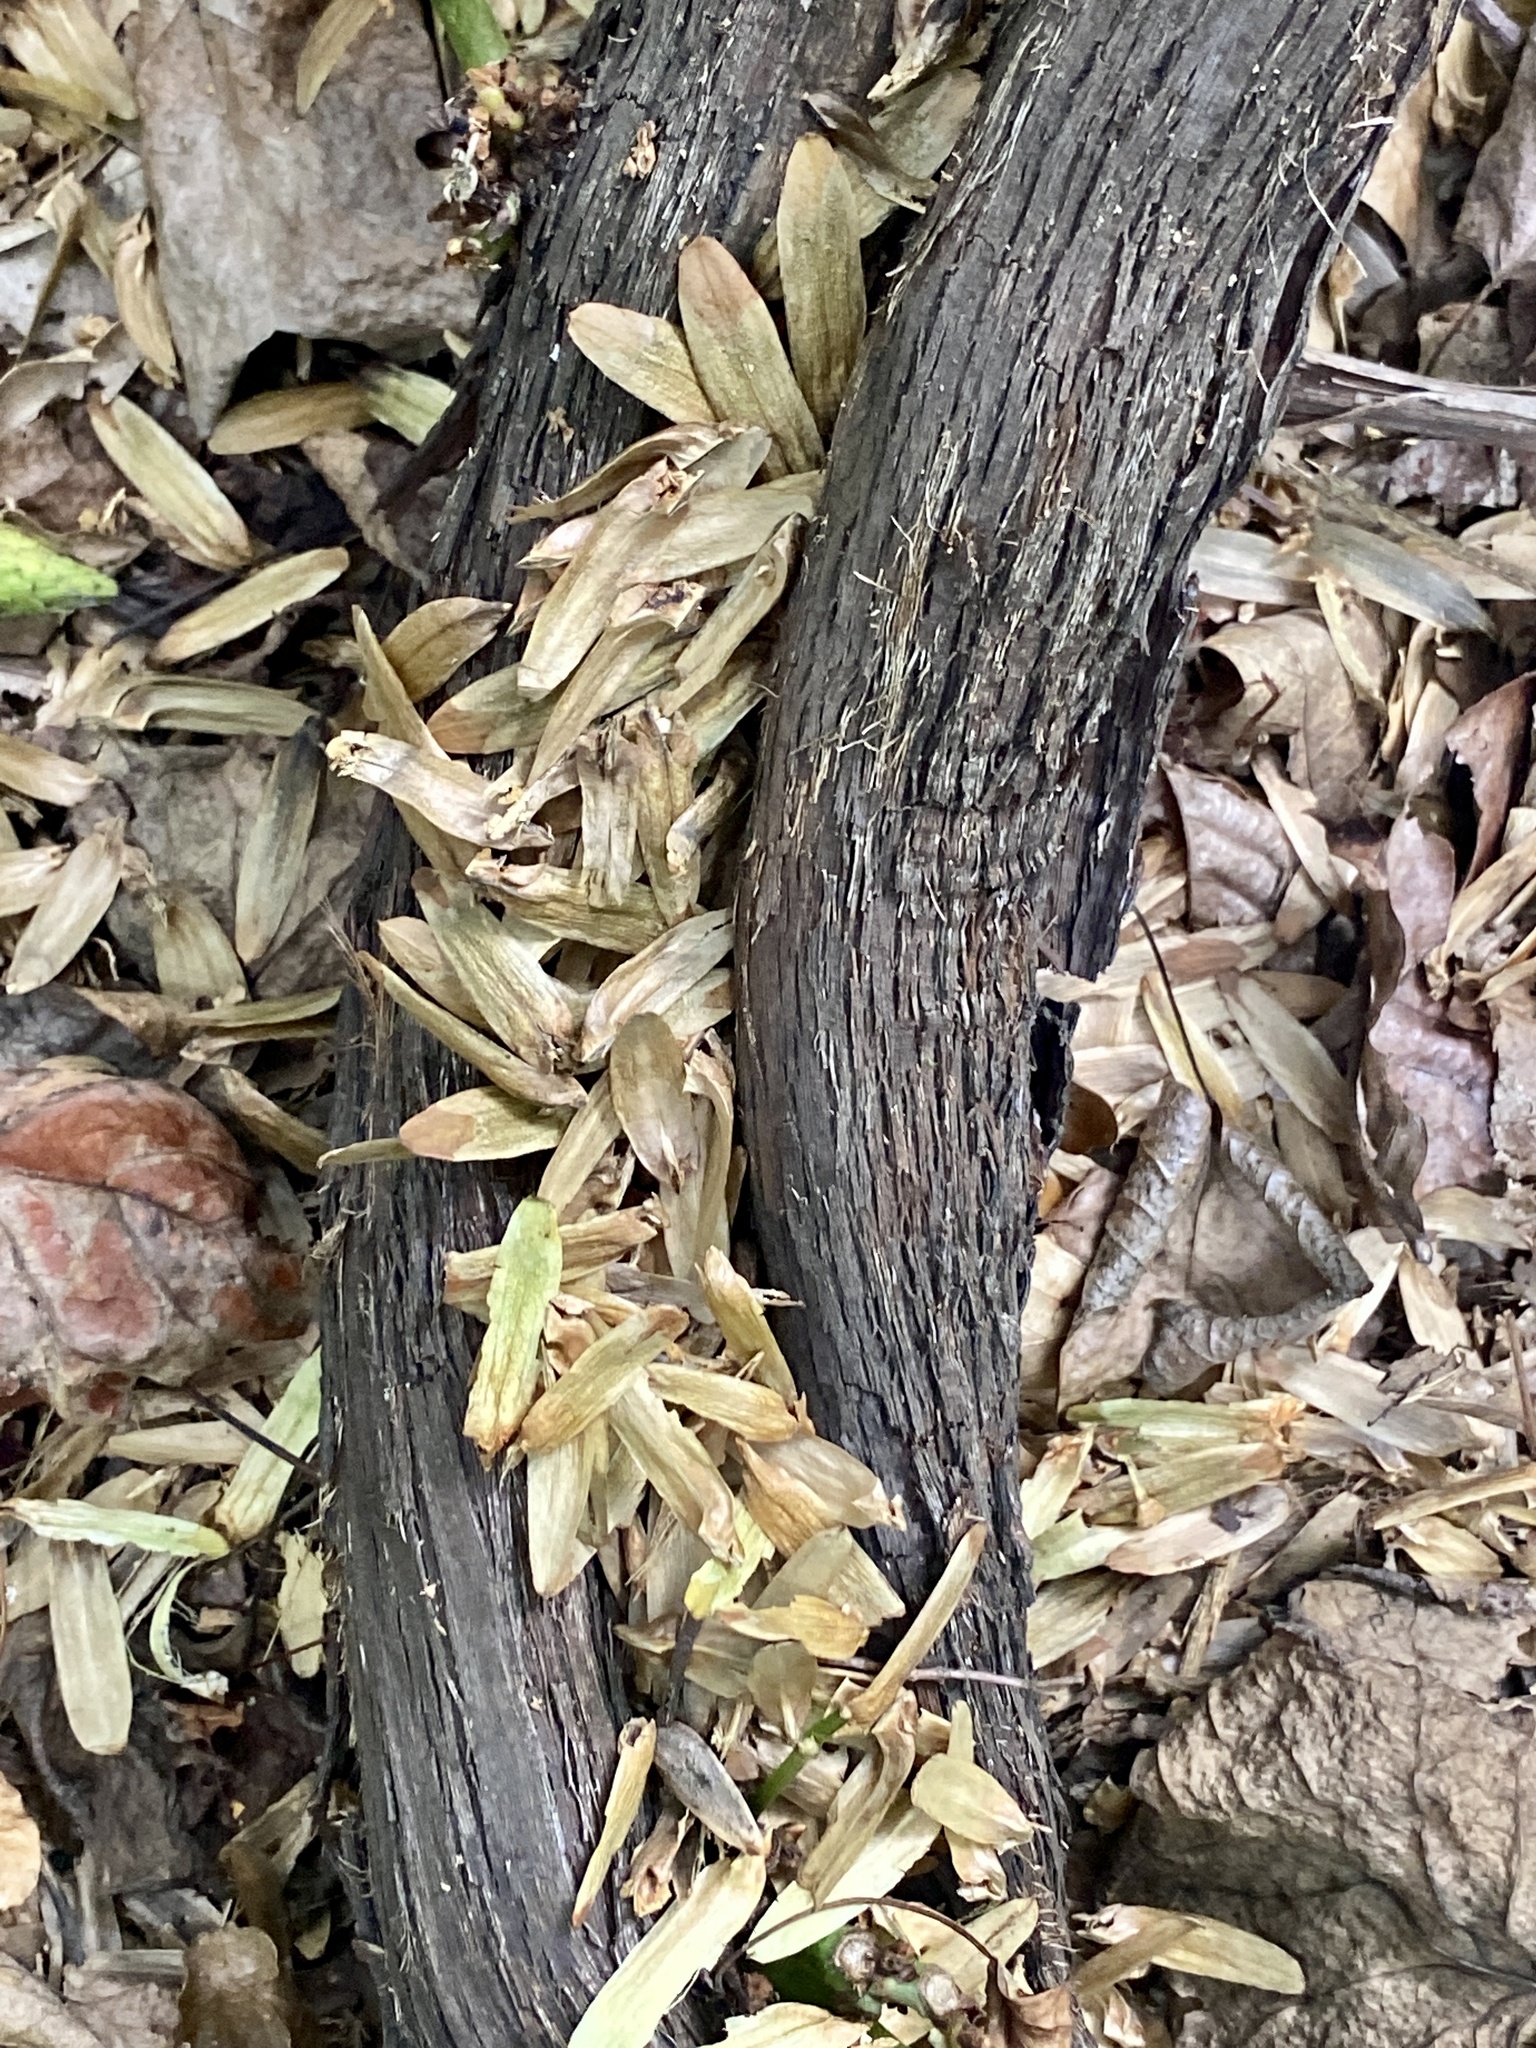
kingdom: Plantae
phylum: Tracheophyta
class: Magnoliopsida
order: Magnoliales
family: Magnoliaceae
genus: Liriodendron
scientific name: Liriodendron tulipifera
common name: Tulip tree
